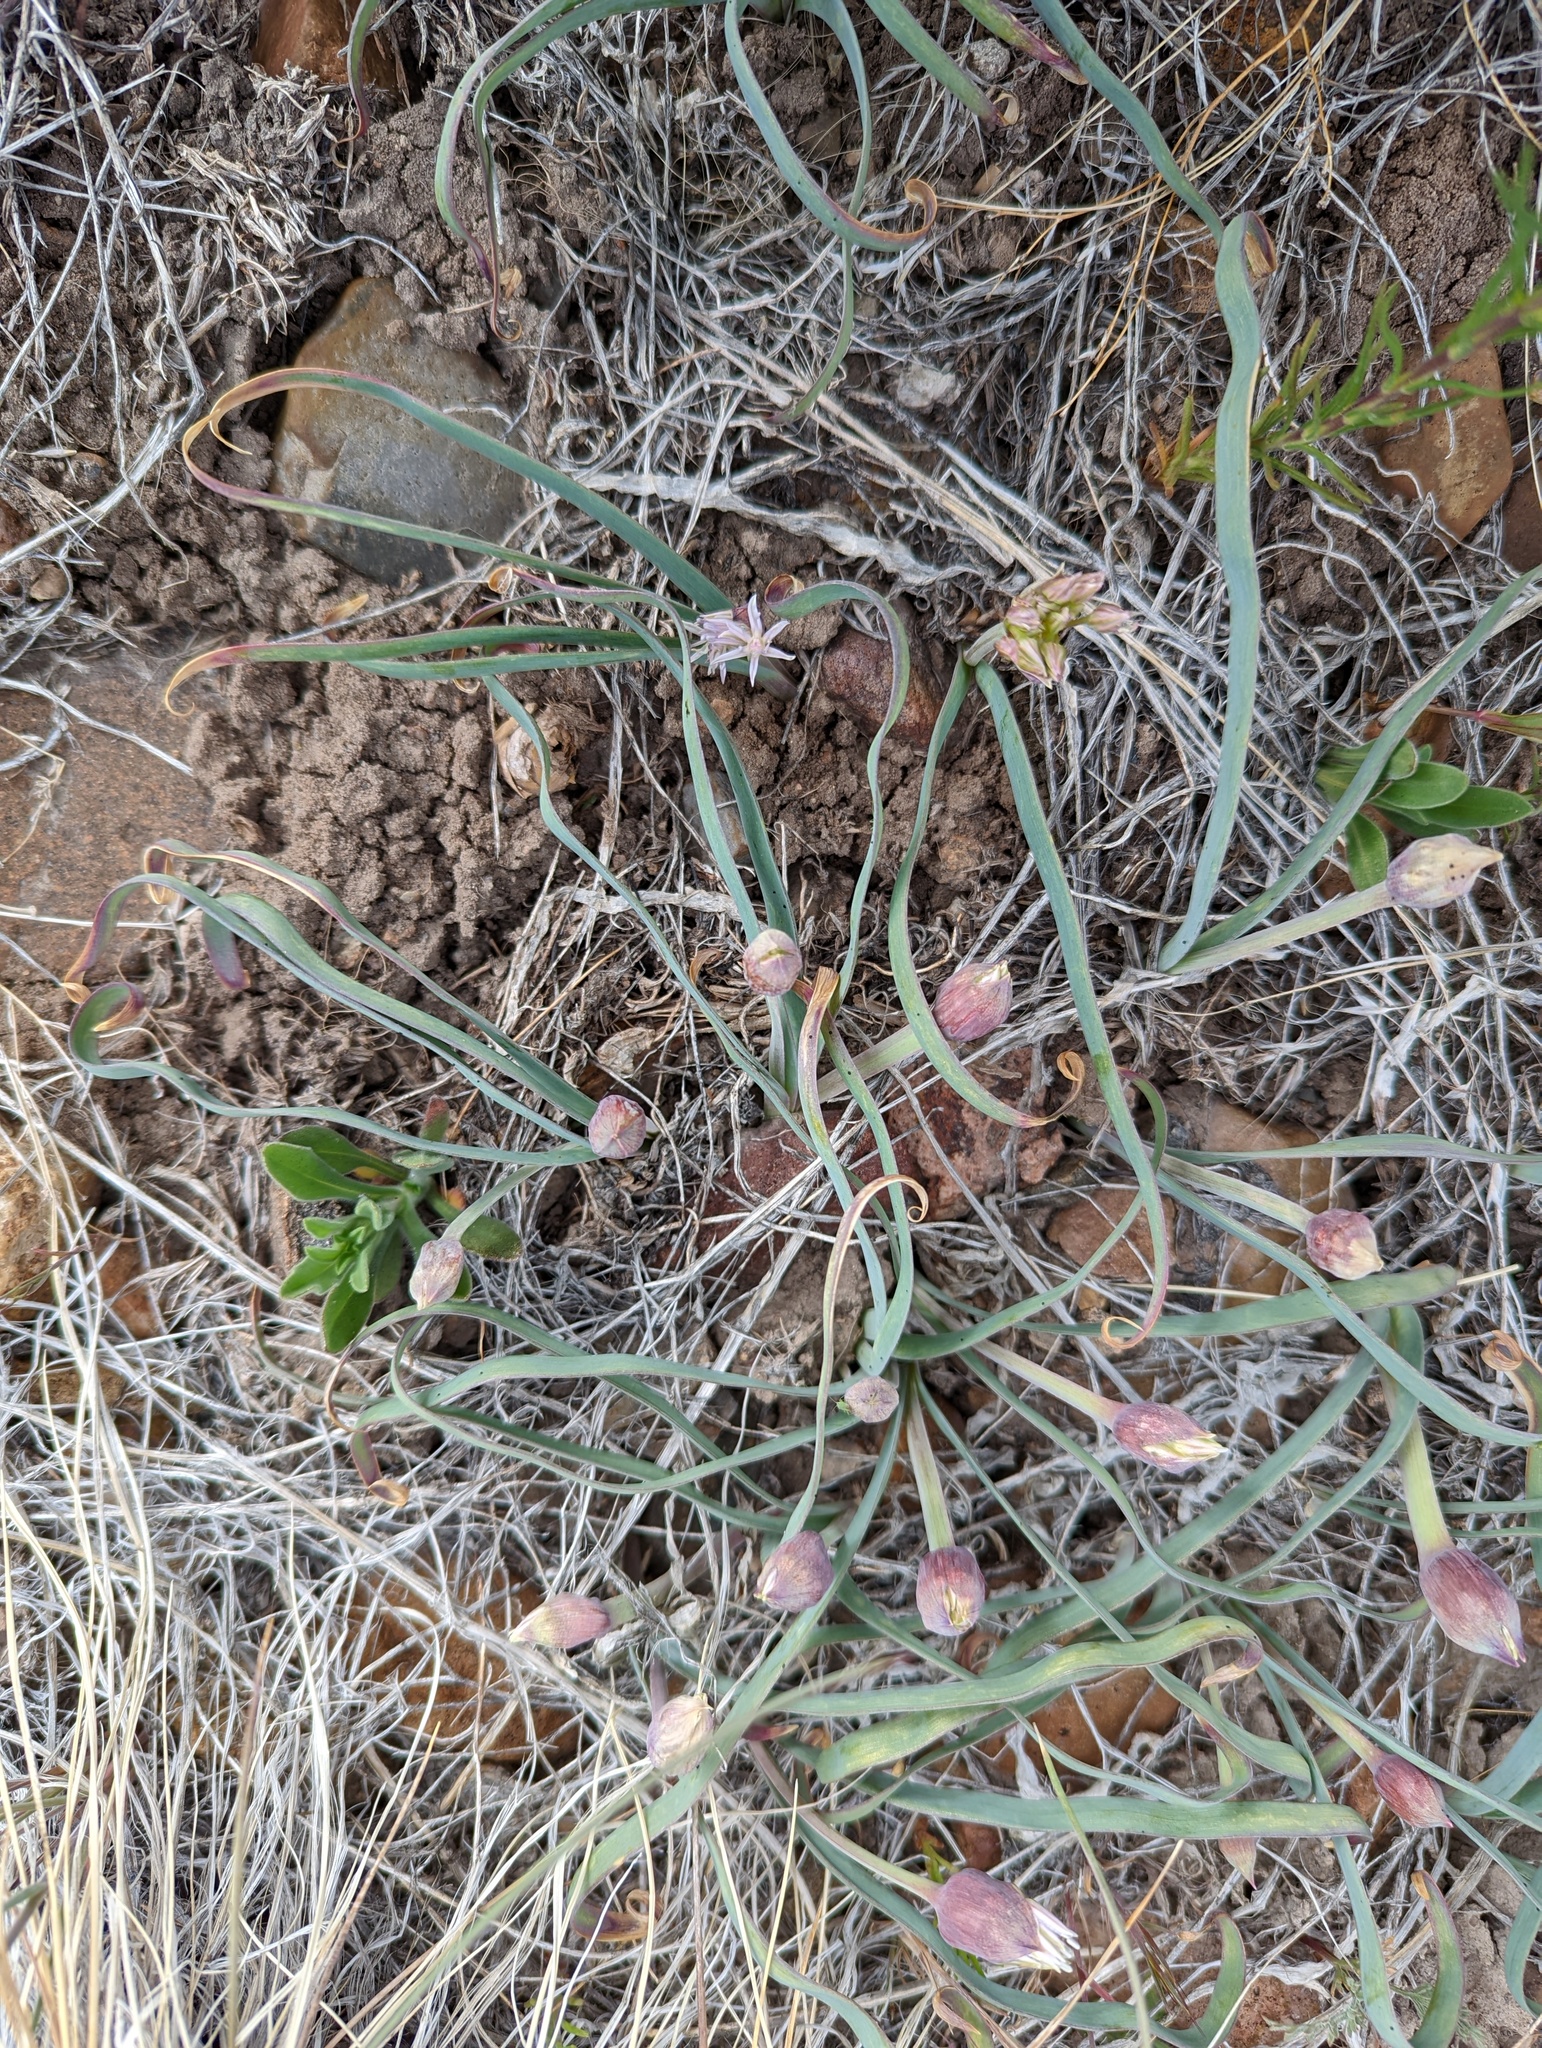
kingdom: Plantae
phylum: Tracheophyta
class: Liliopsida
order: Asparagales
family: Amaryllidaceae
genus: Allium
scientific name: Allium anceps
